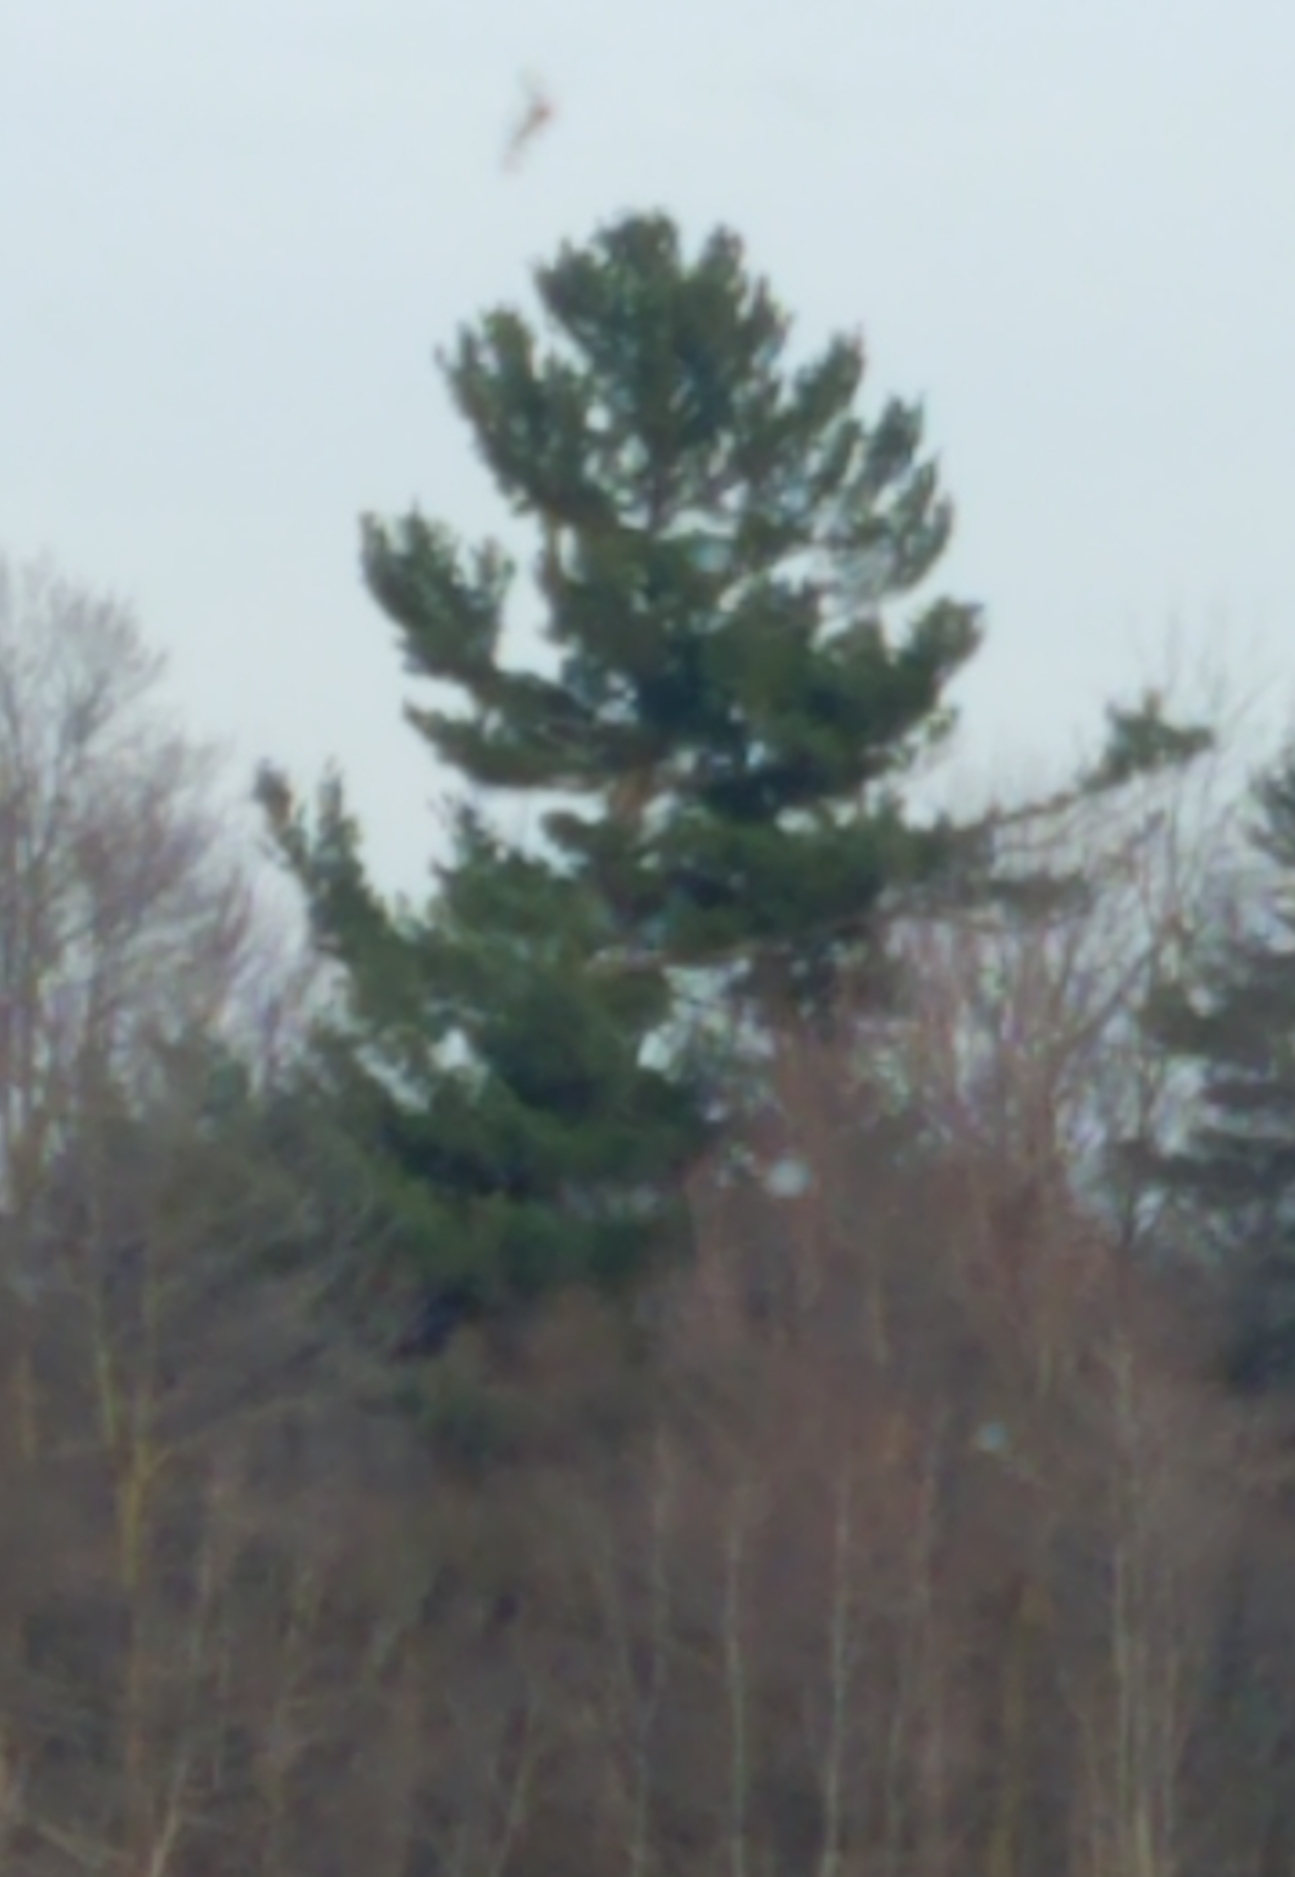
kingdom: Plantae
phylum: Tracheophyta
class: Pinopsida
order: Pinales
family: Pinaceae
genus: Pinus
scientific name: Pinus strobus
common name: Weymouth pine
